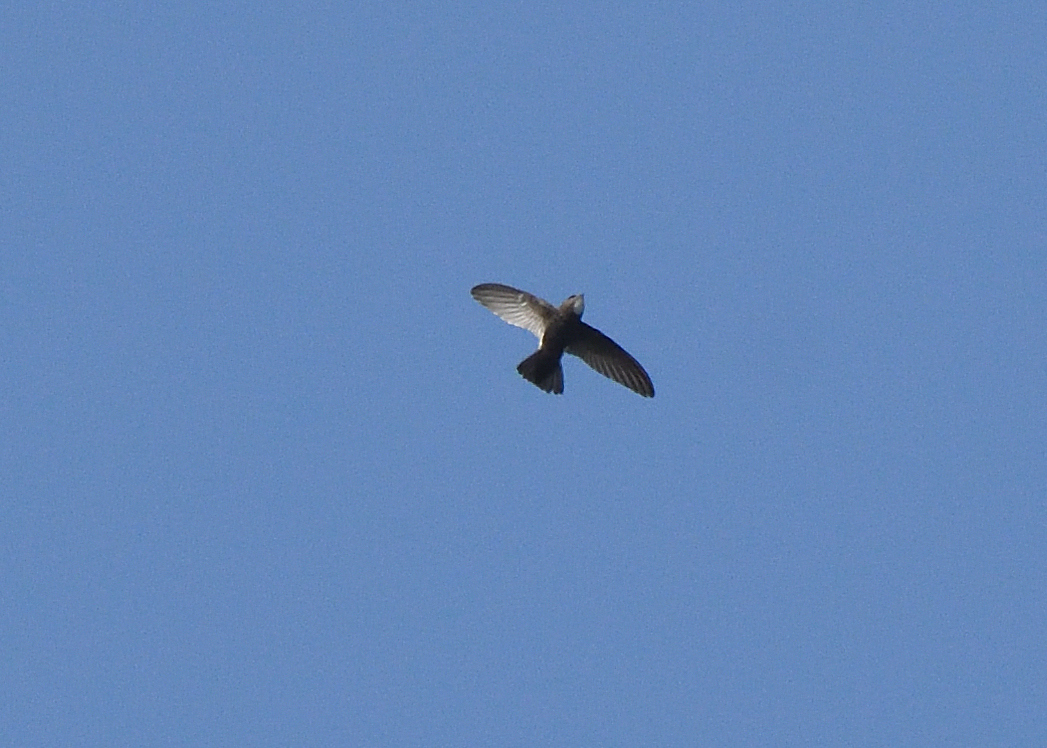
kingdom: Animalia
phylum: Chordata
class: Aves
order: Apodiformes
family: Apodidae
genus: Apus
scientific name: Apus affinis
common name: Little swift
